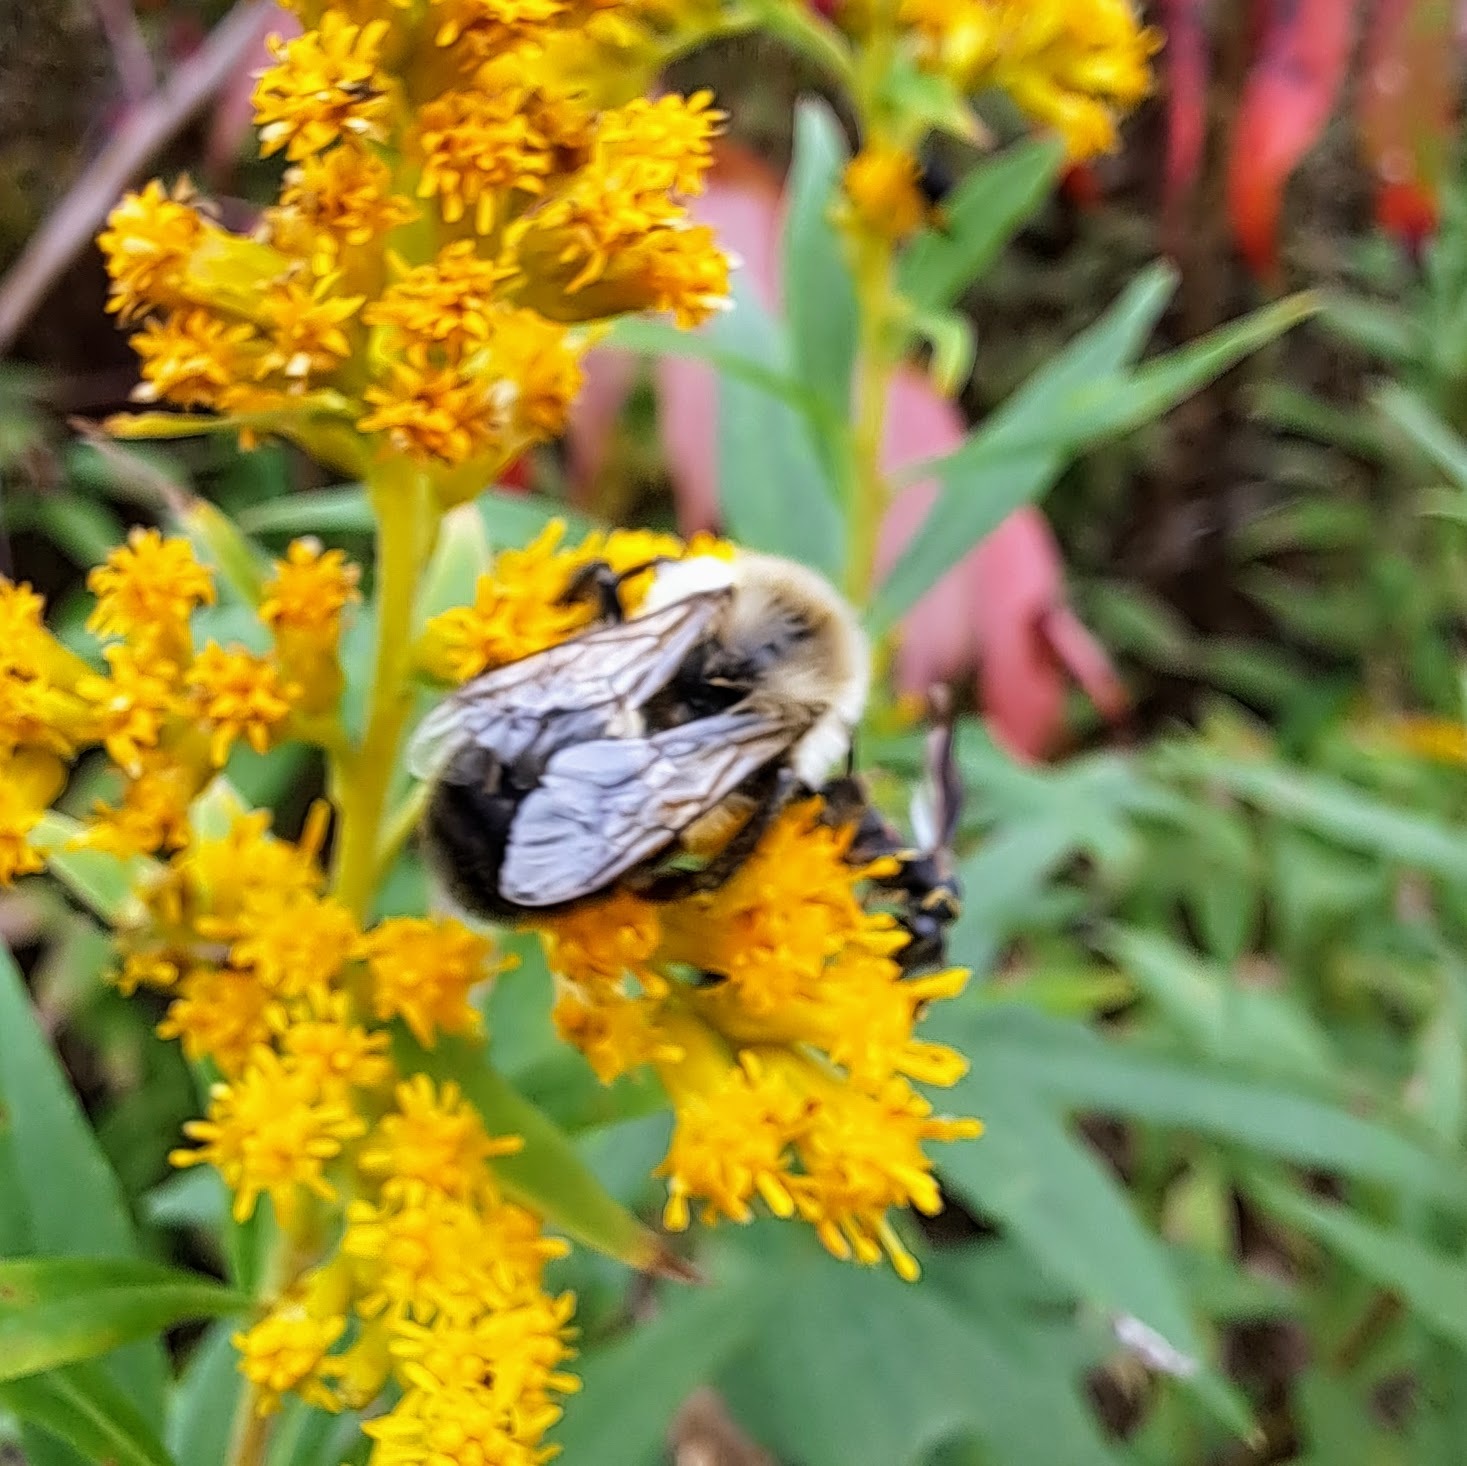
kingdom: Animalia
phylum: Arthropoda
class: Insecta
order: Hymenoptera
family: Apidae
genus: Bombus
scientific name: Bombus impatiens
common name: Common eastern bumble bee
